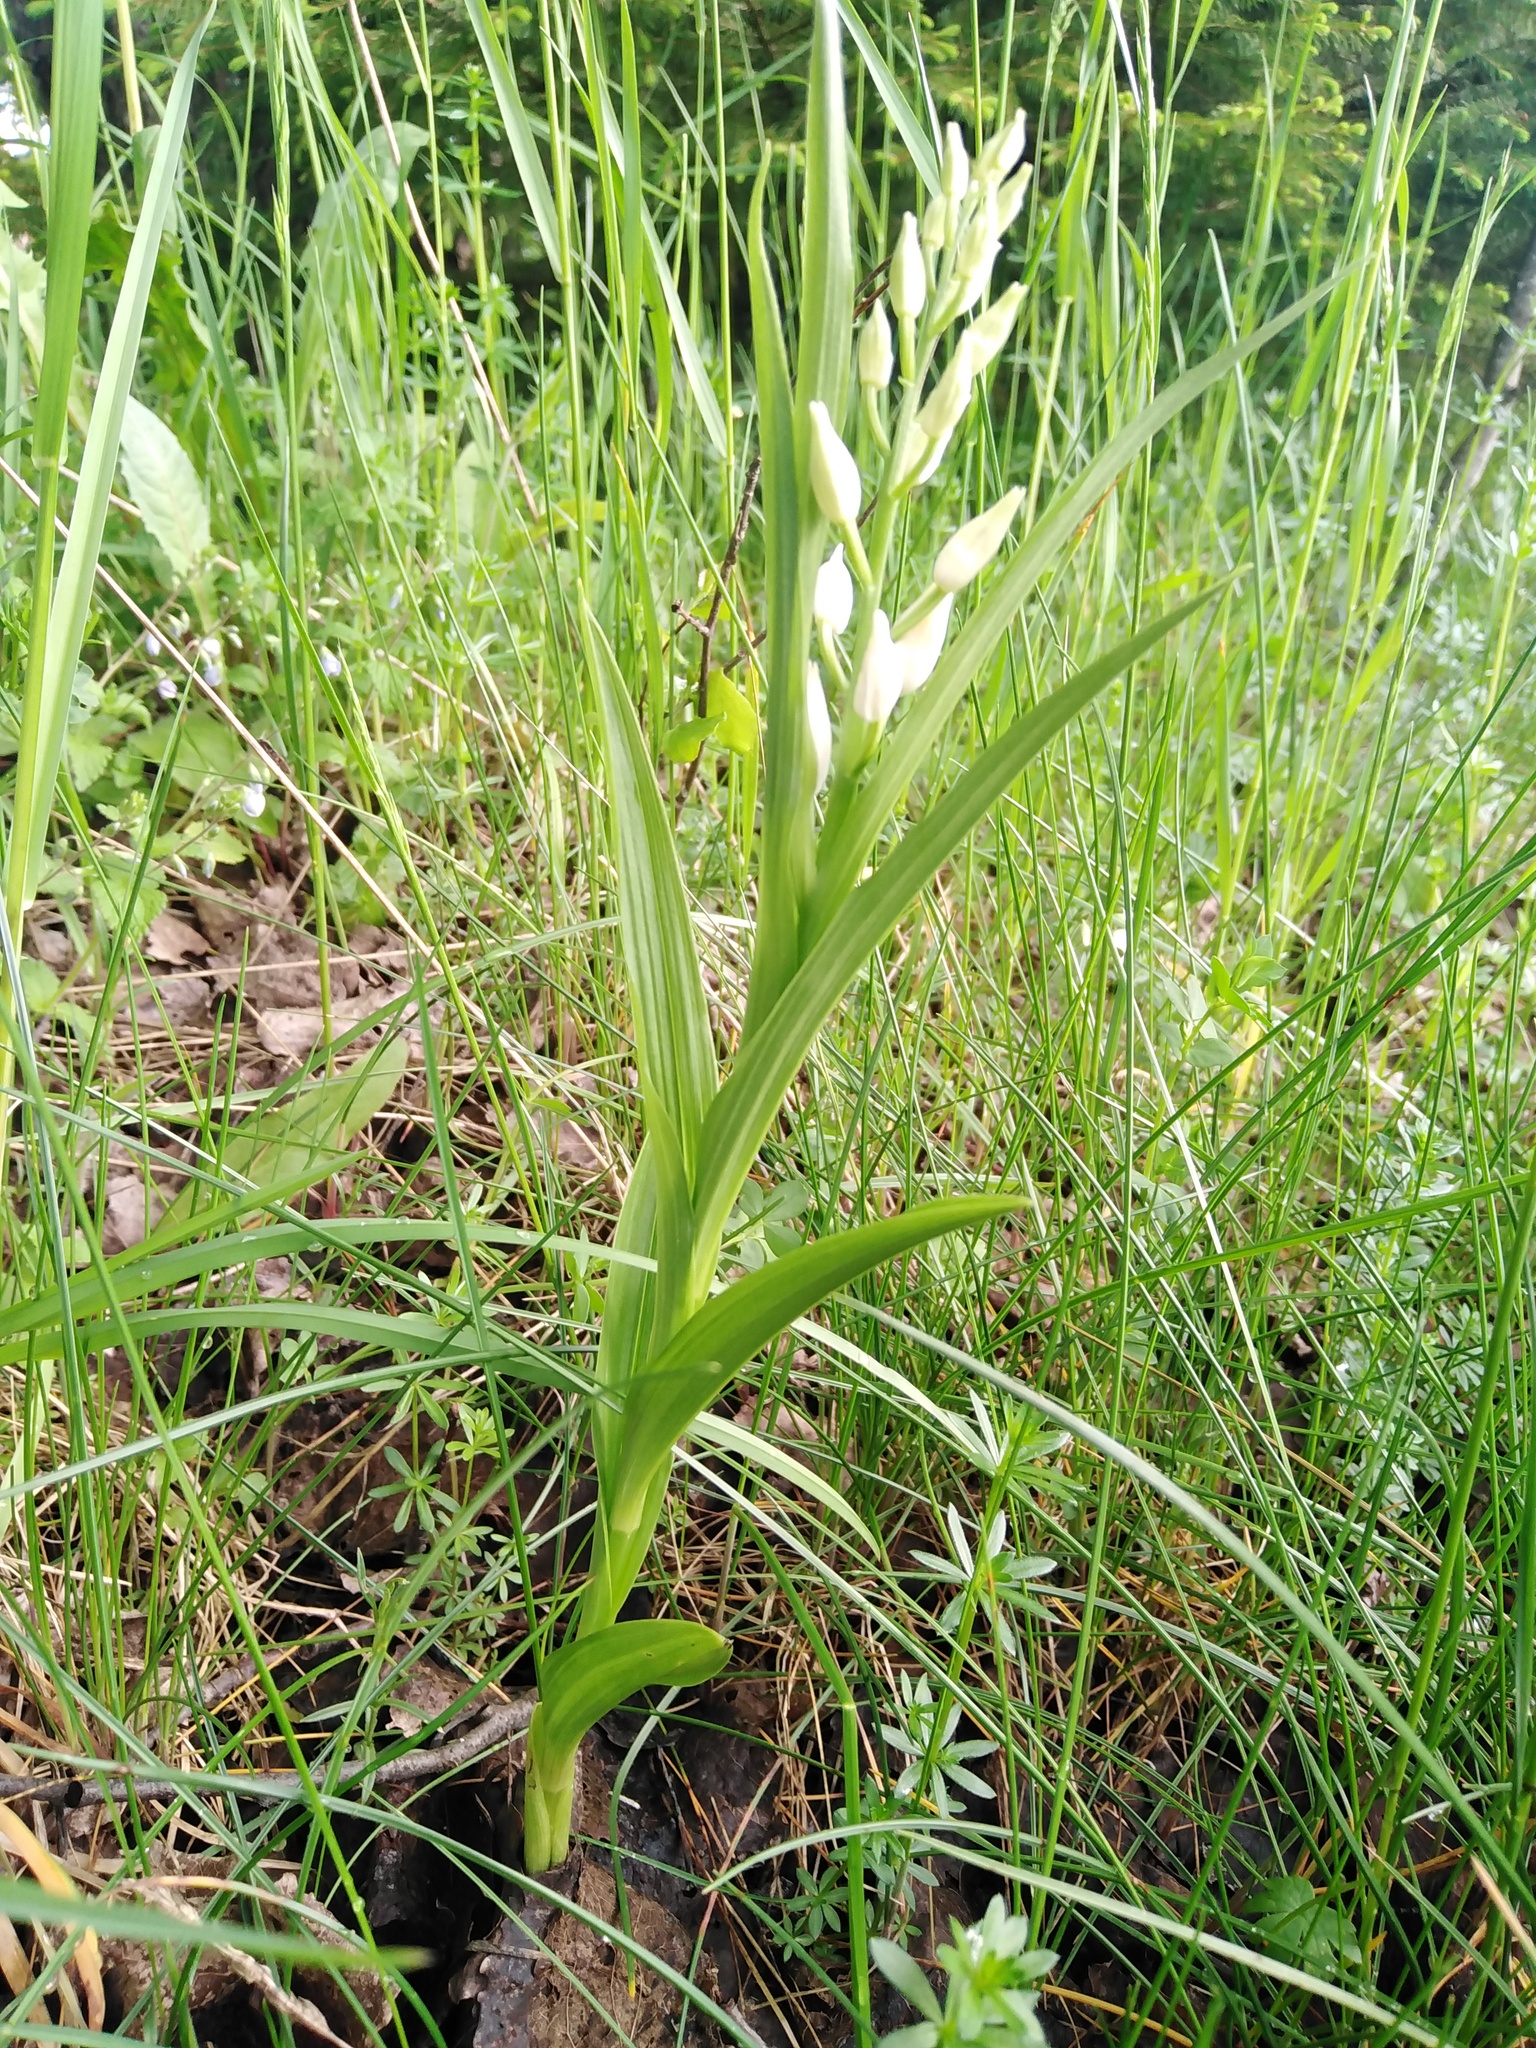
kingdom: Plantae
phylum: Tracheophyta
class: Liliopsida
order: Asparagales
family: Orchidaceae
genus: Cephalanthera
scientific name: Cephalanthera longifolia
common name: Narrow-leaved helleborine
